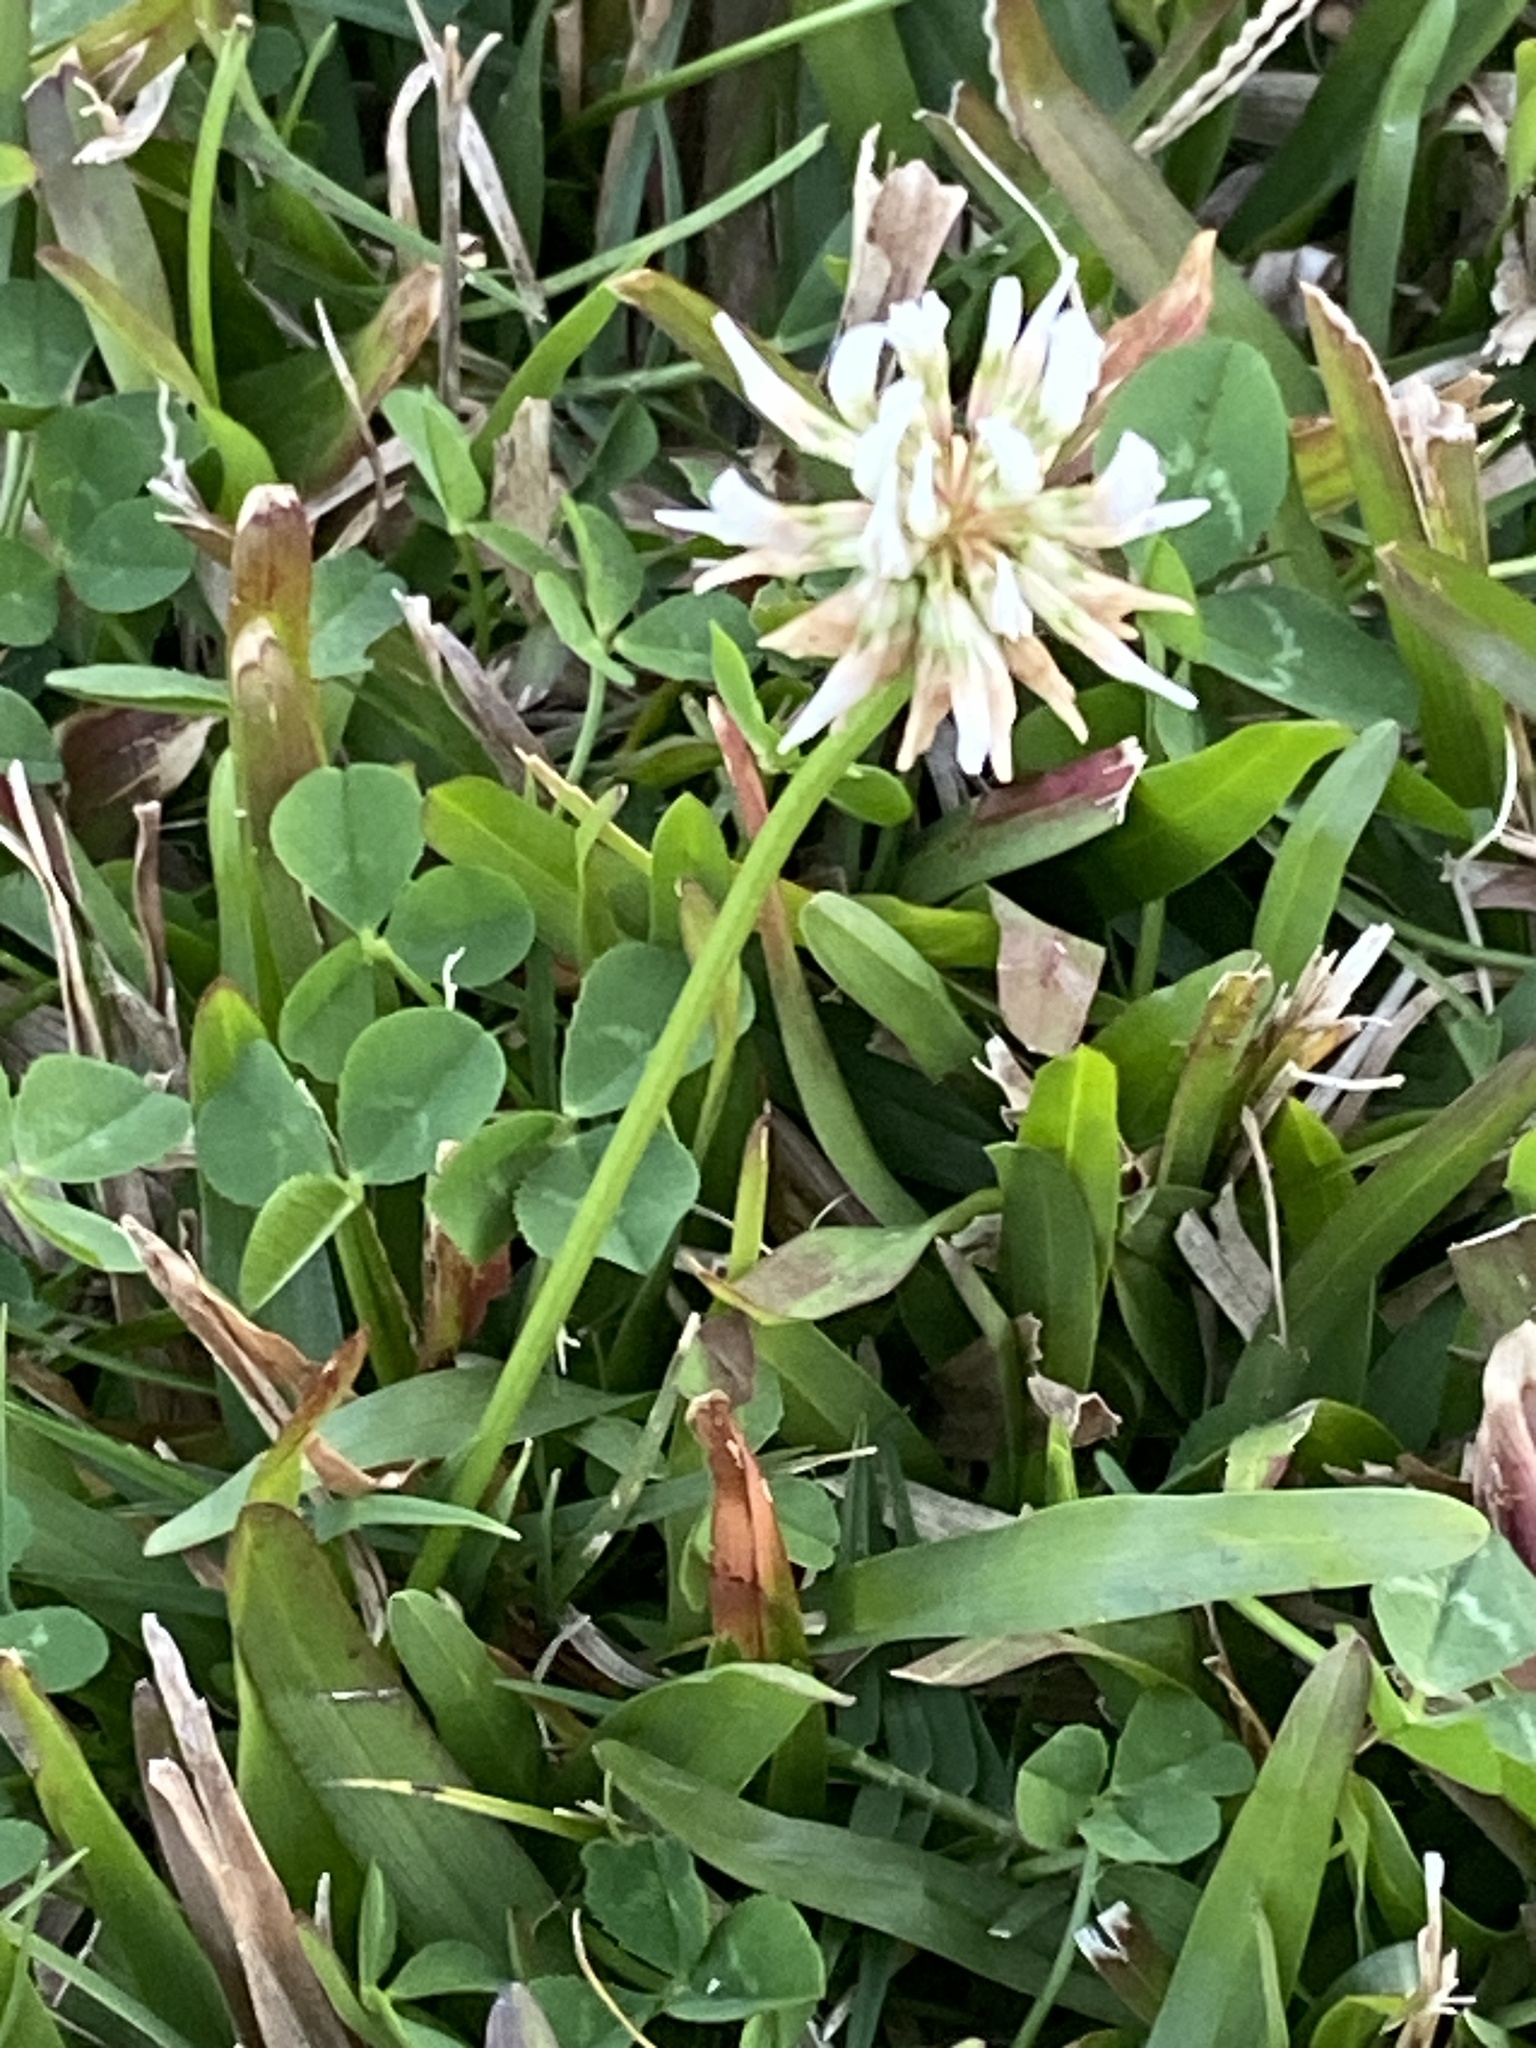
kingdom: Plantae
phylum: Tracheophyta
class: Magnoliopsida
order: Fabales
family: Fabaceae
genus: Trifolium
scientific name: Trifolium repens
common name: White clover
